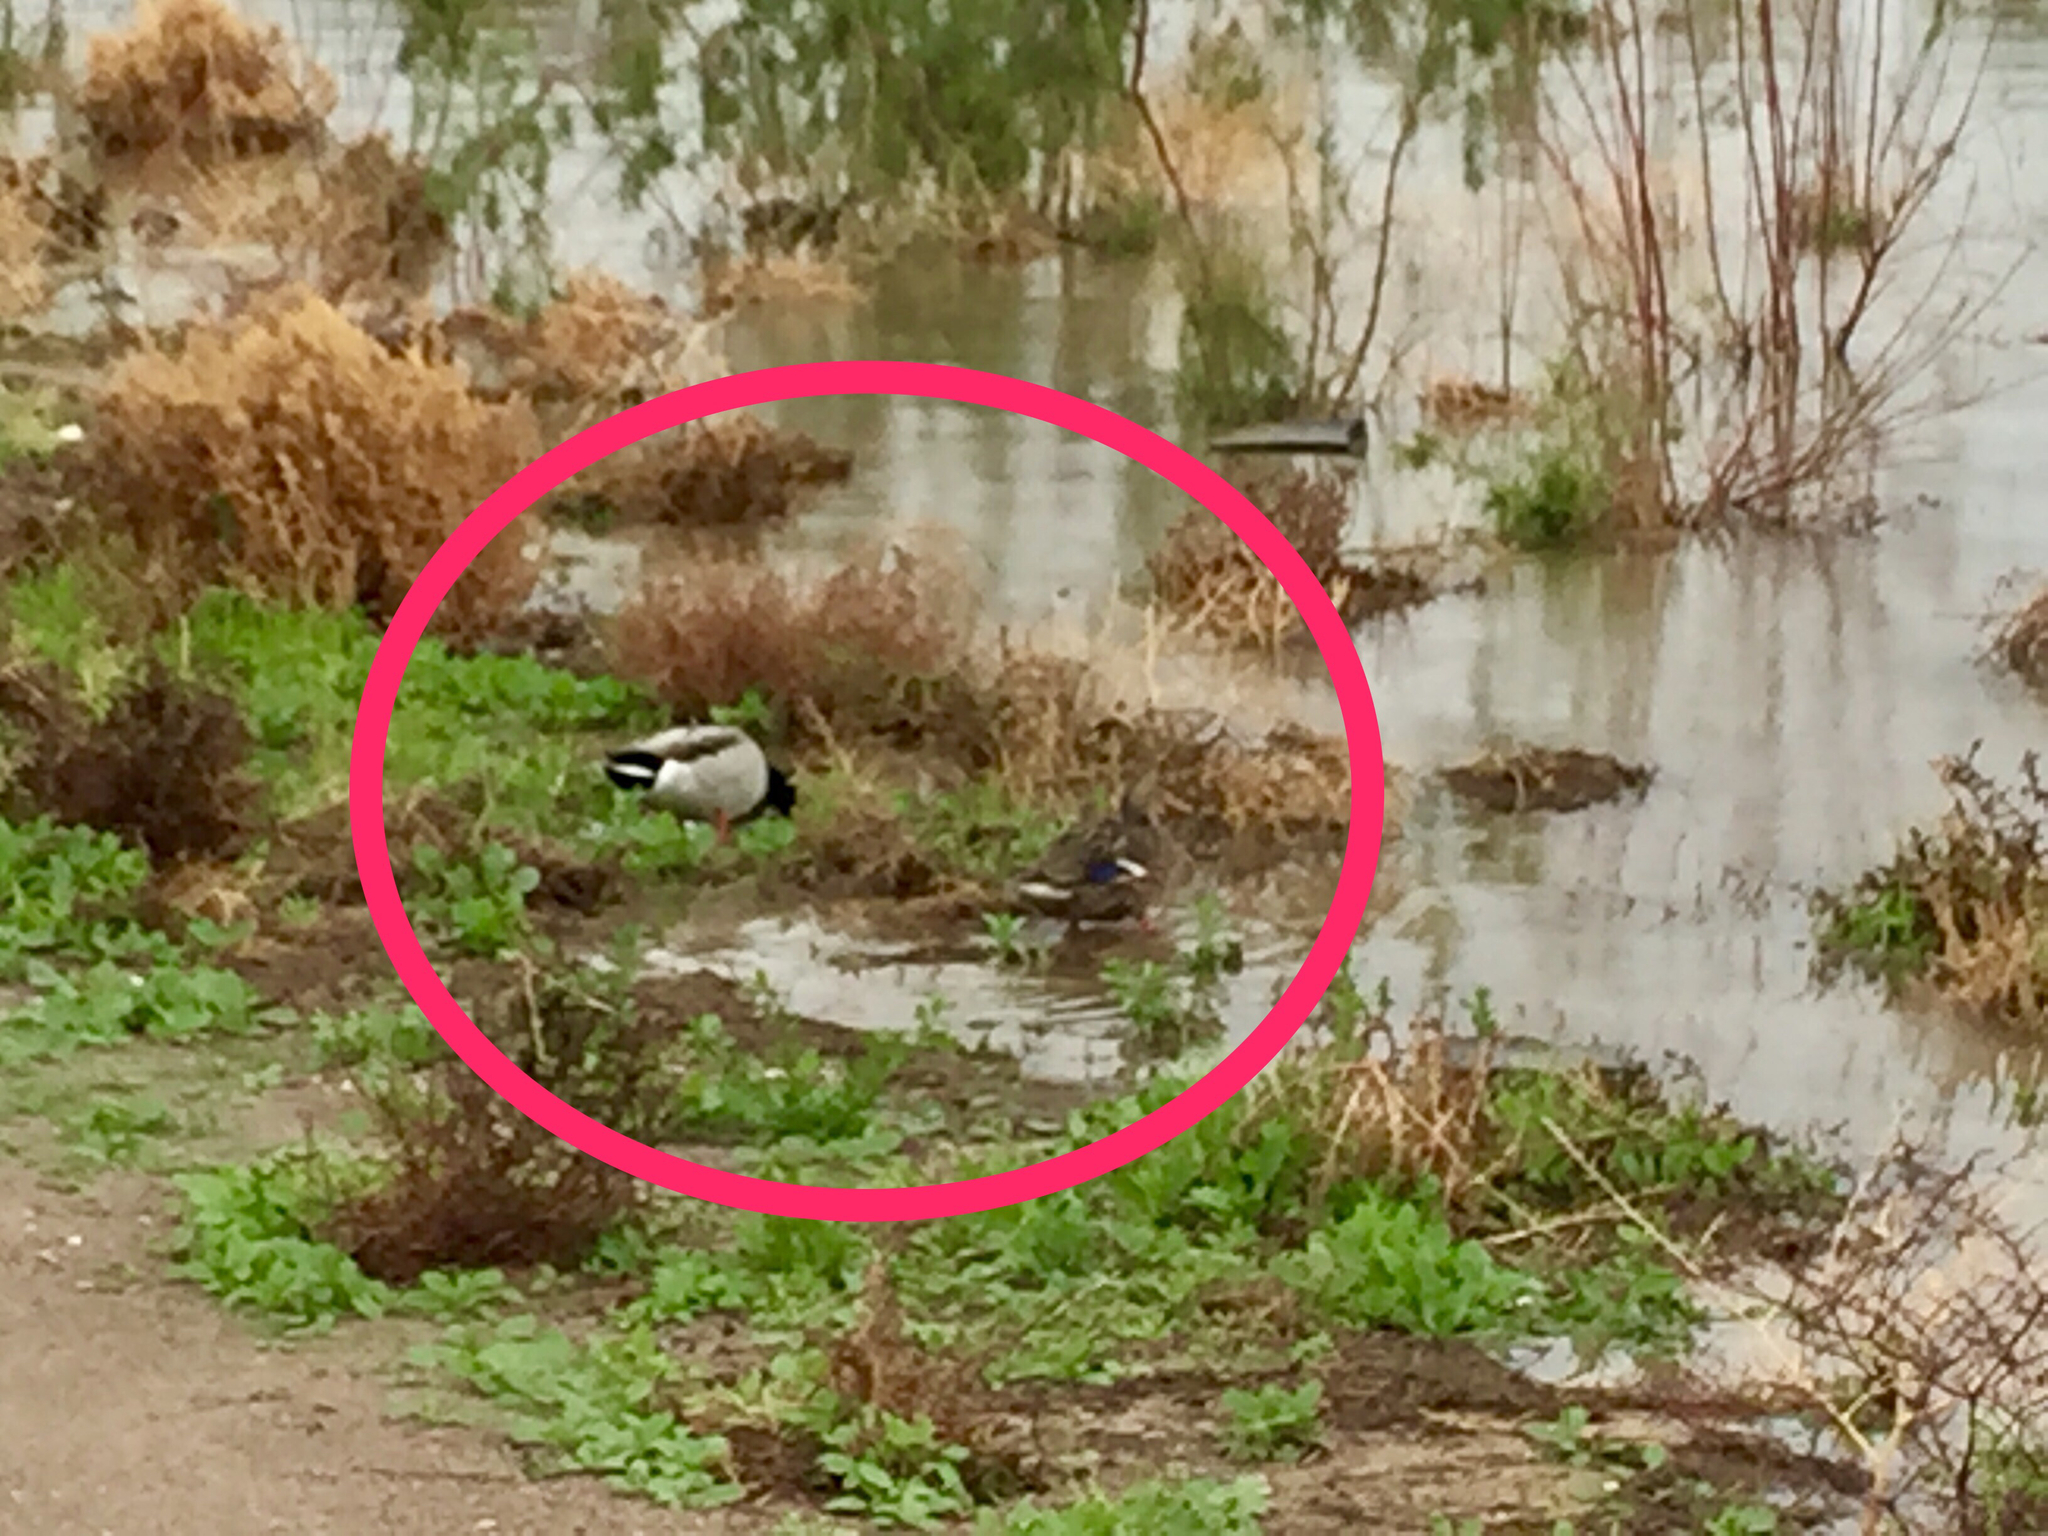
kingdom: Animalia
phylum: Chordata
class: Aves
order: Anseriformes
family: Anatidae
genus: Anas
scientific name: Anas platyrhynchos
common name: Mallard
